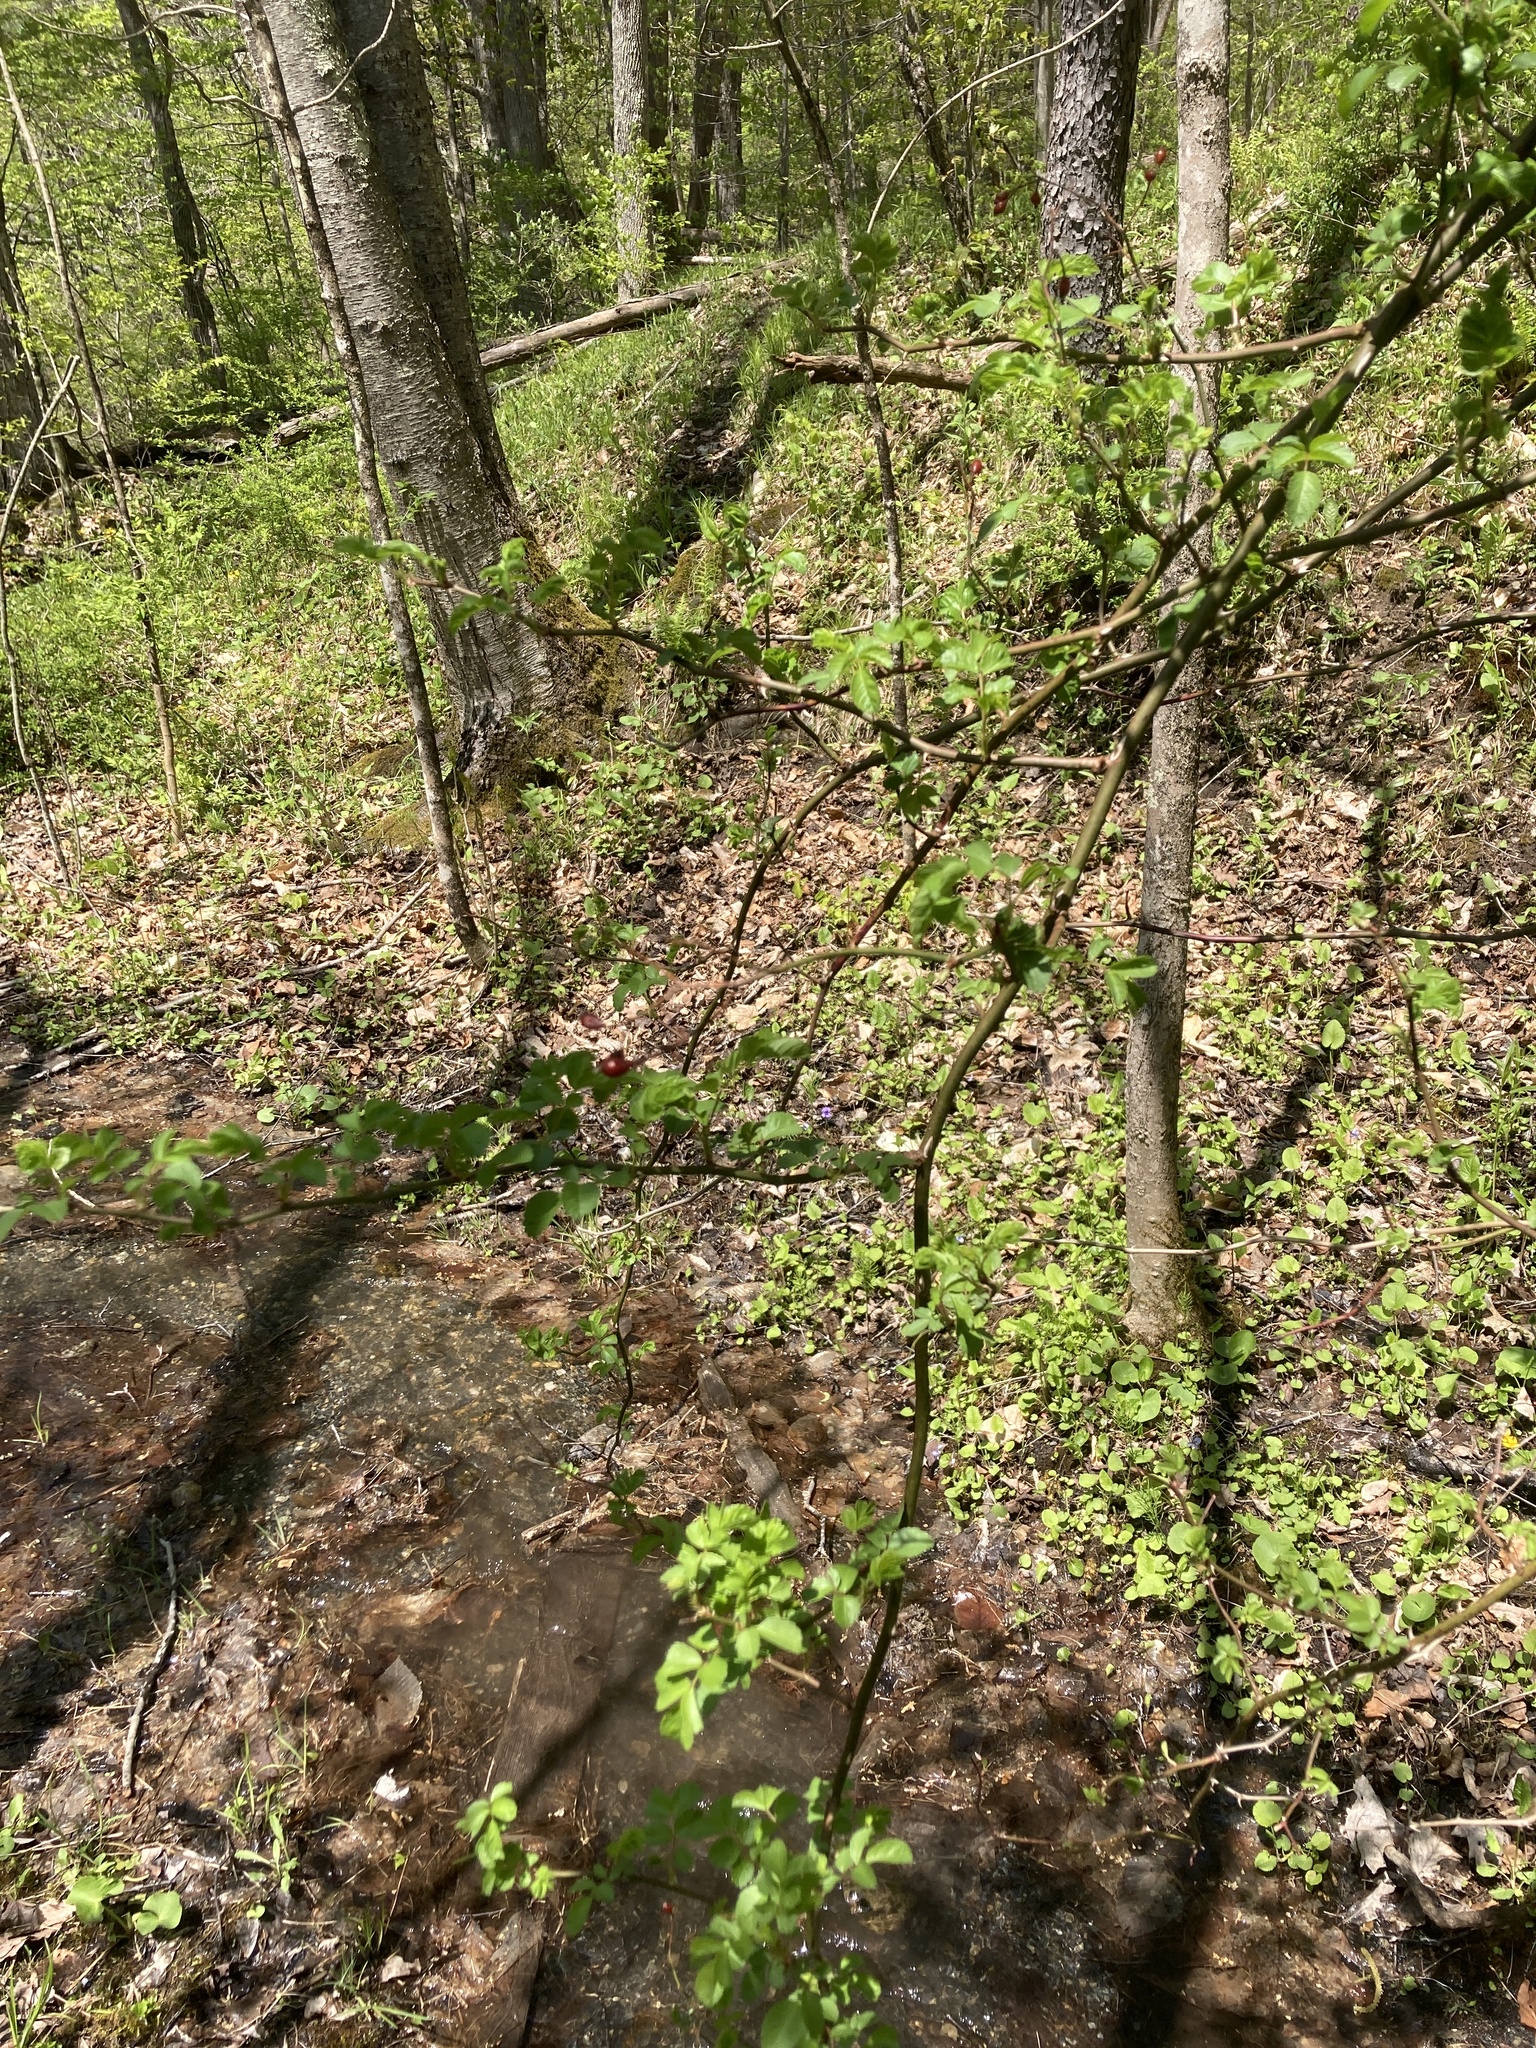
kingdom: Plantae
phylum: Tracheophyta
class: Magnoliopsida
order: Rosales
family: Rosaceae
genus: Rosa
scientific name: Rosa multiflora
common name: Multiflora rose
